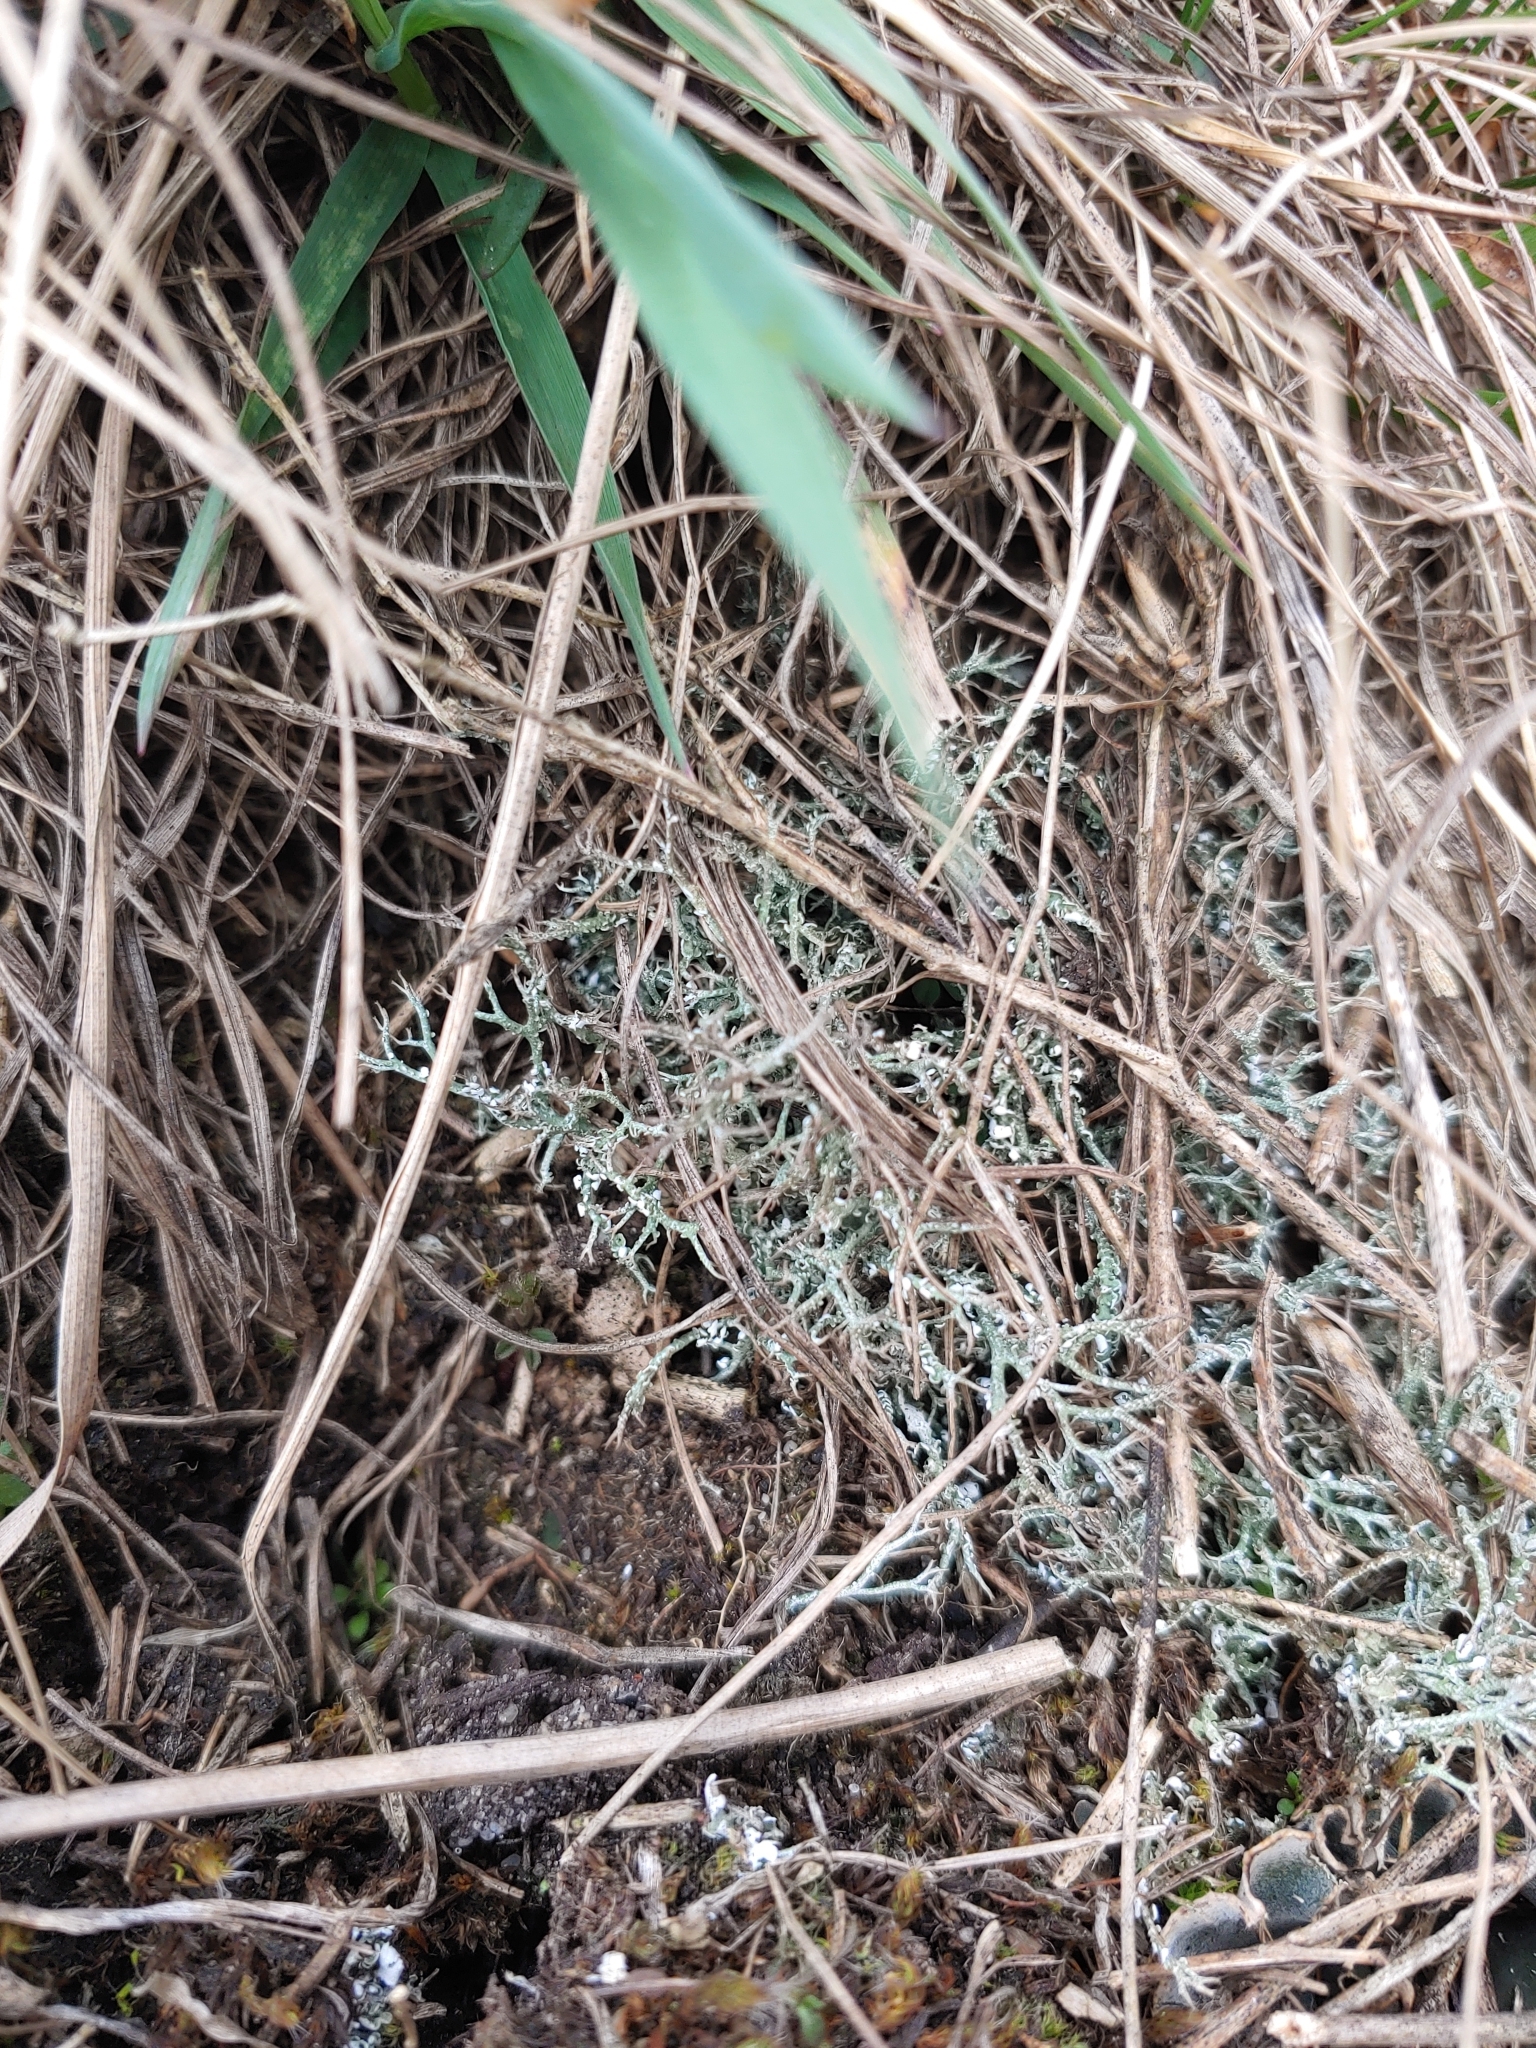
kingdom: Fungi
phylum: Ascomycota
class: Lecanoromycetes
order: Lecanorales
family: Cladoniaceae
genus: Cladonia
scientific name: Cladonia rangiformis
